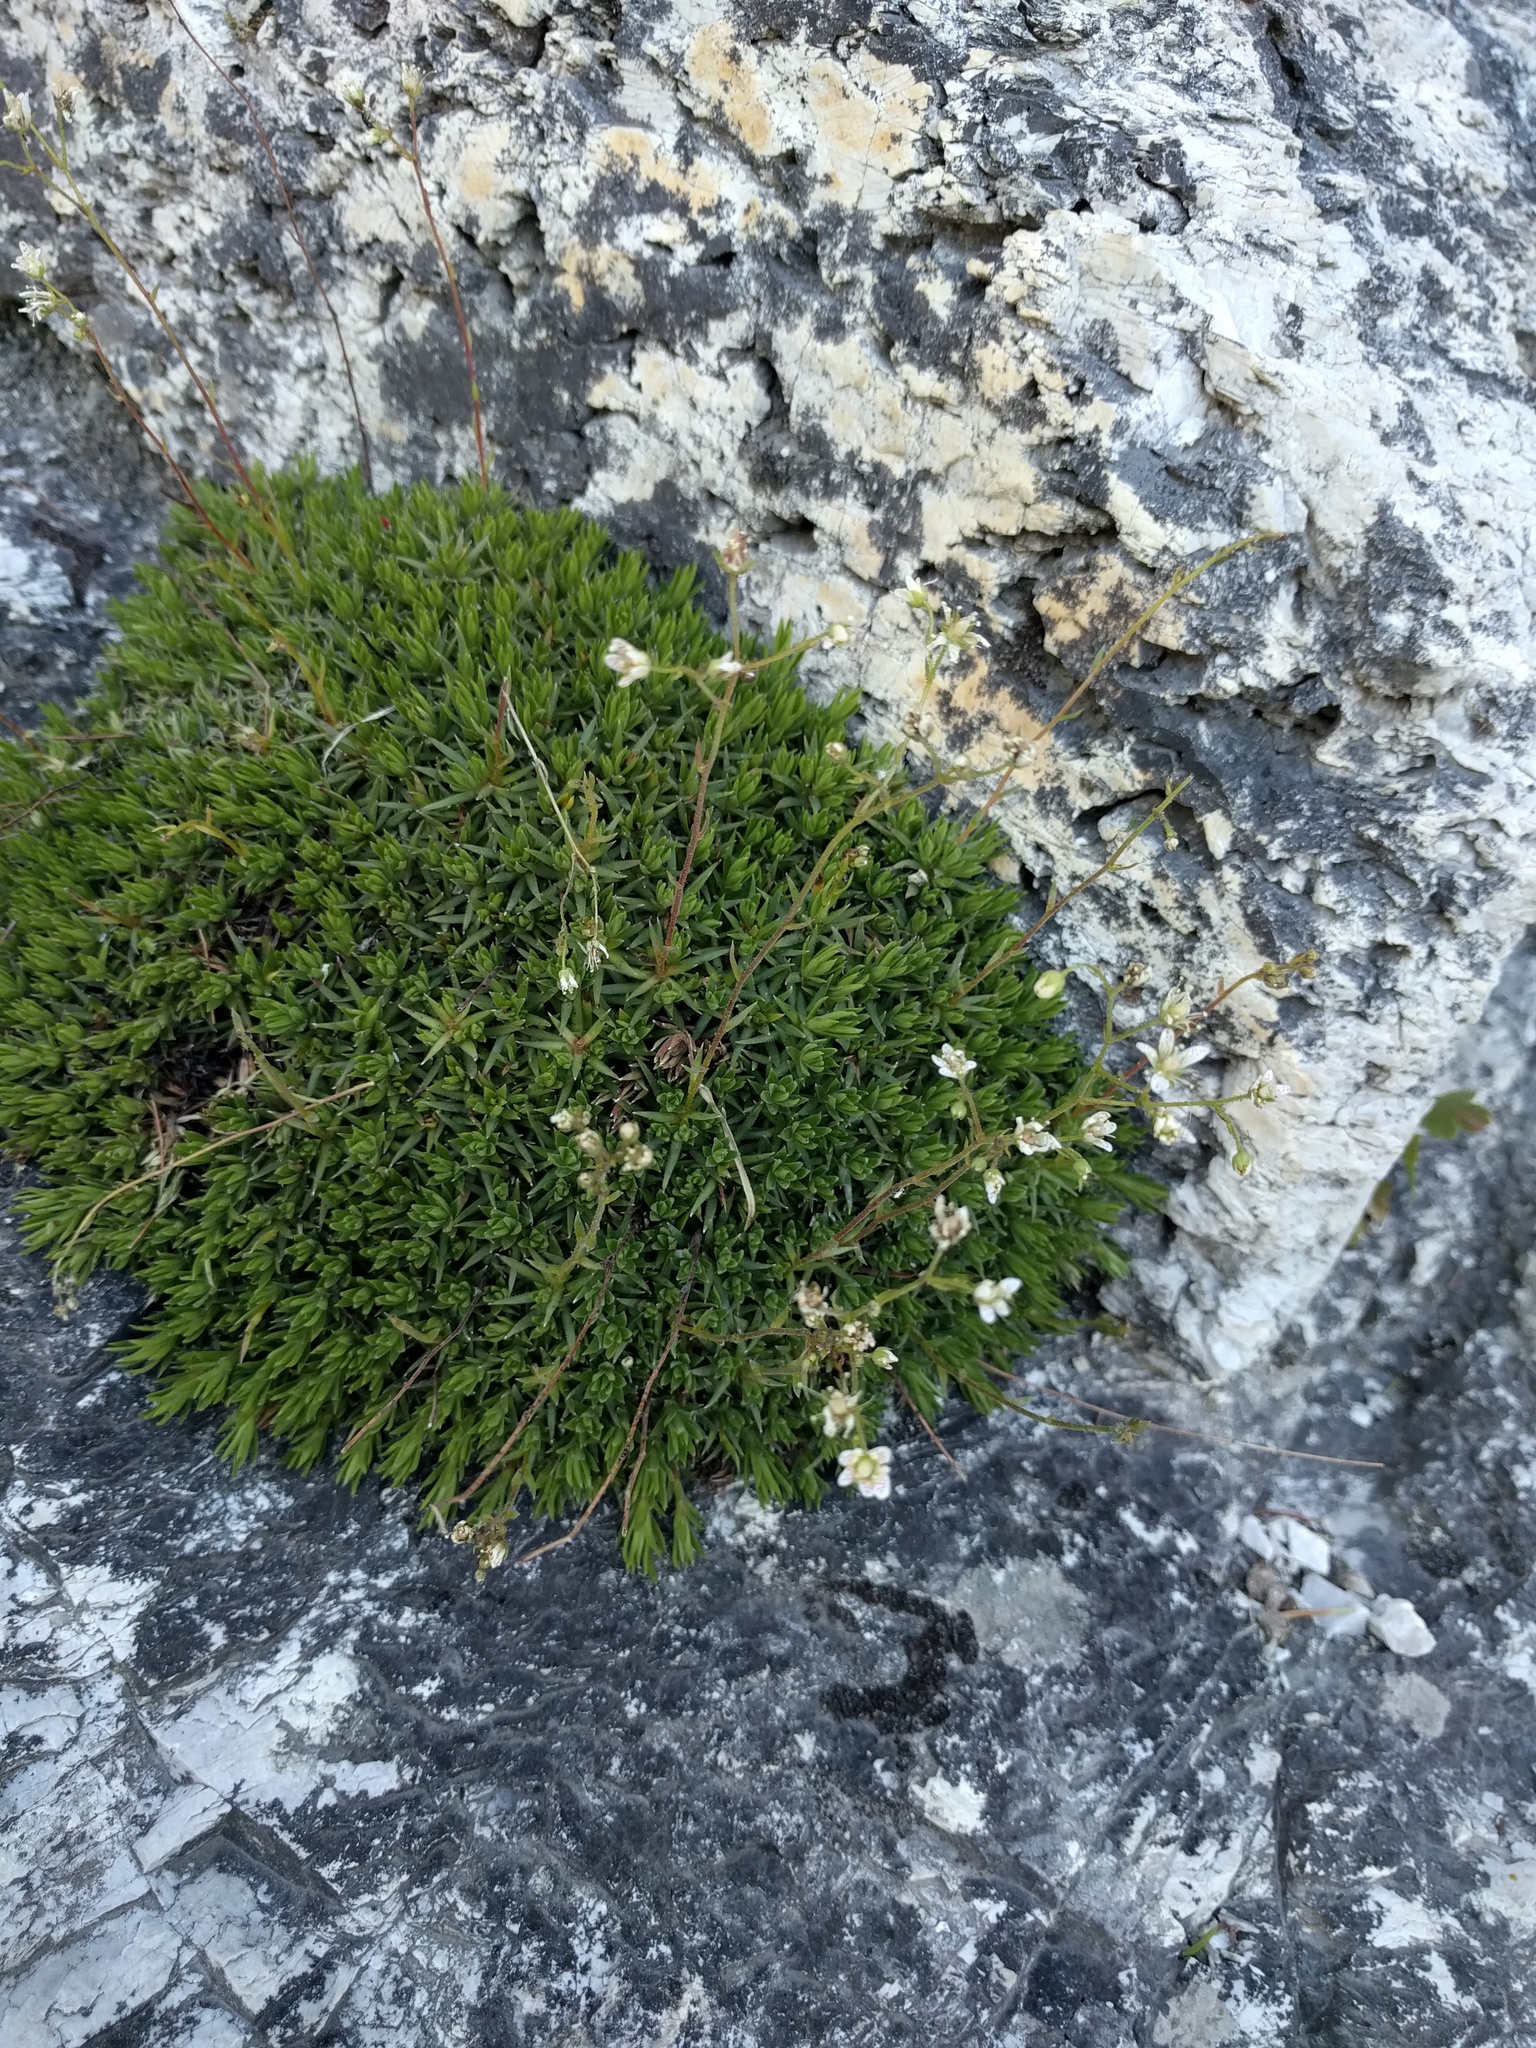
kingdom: Plantae
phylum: Tracheophyta
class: Magnoliopsida
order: Saxifragales
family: Saxifragaceae
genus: Saxifraga
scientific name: Saxifraga bronchialis
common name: Matted saxifrage
